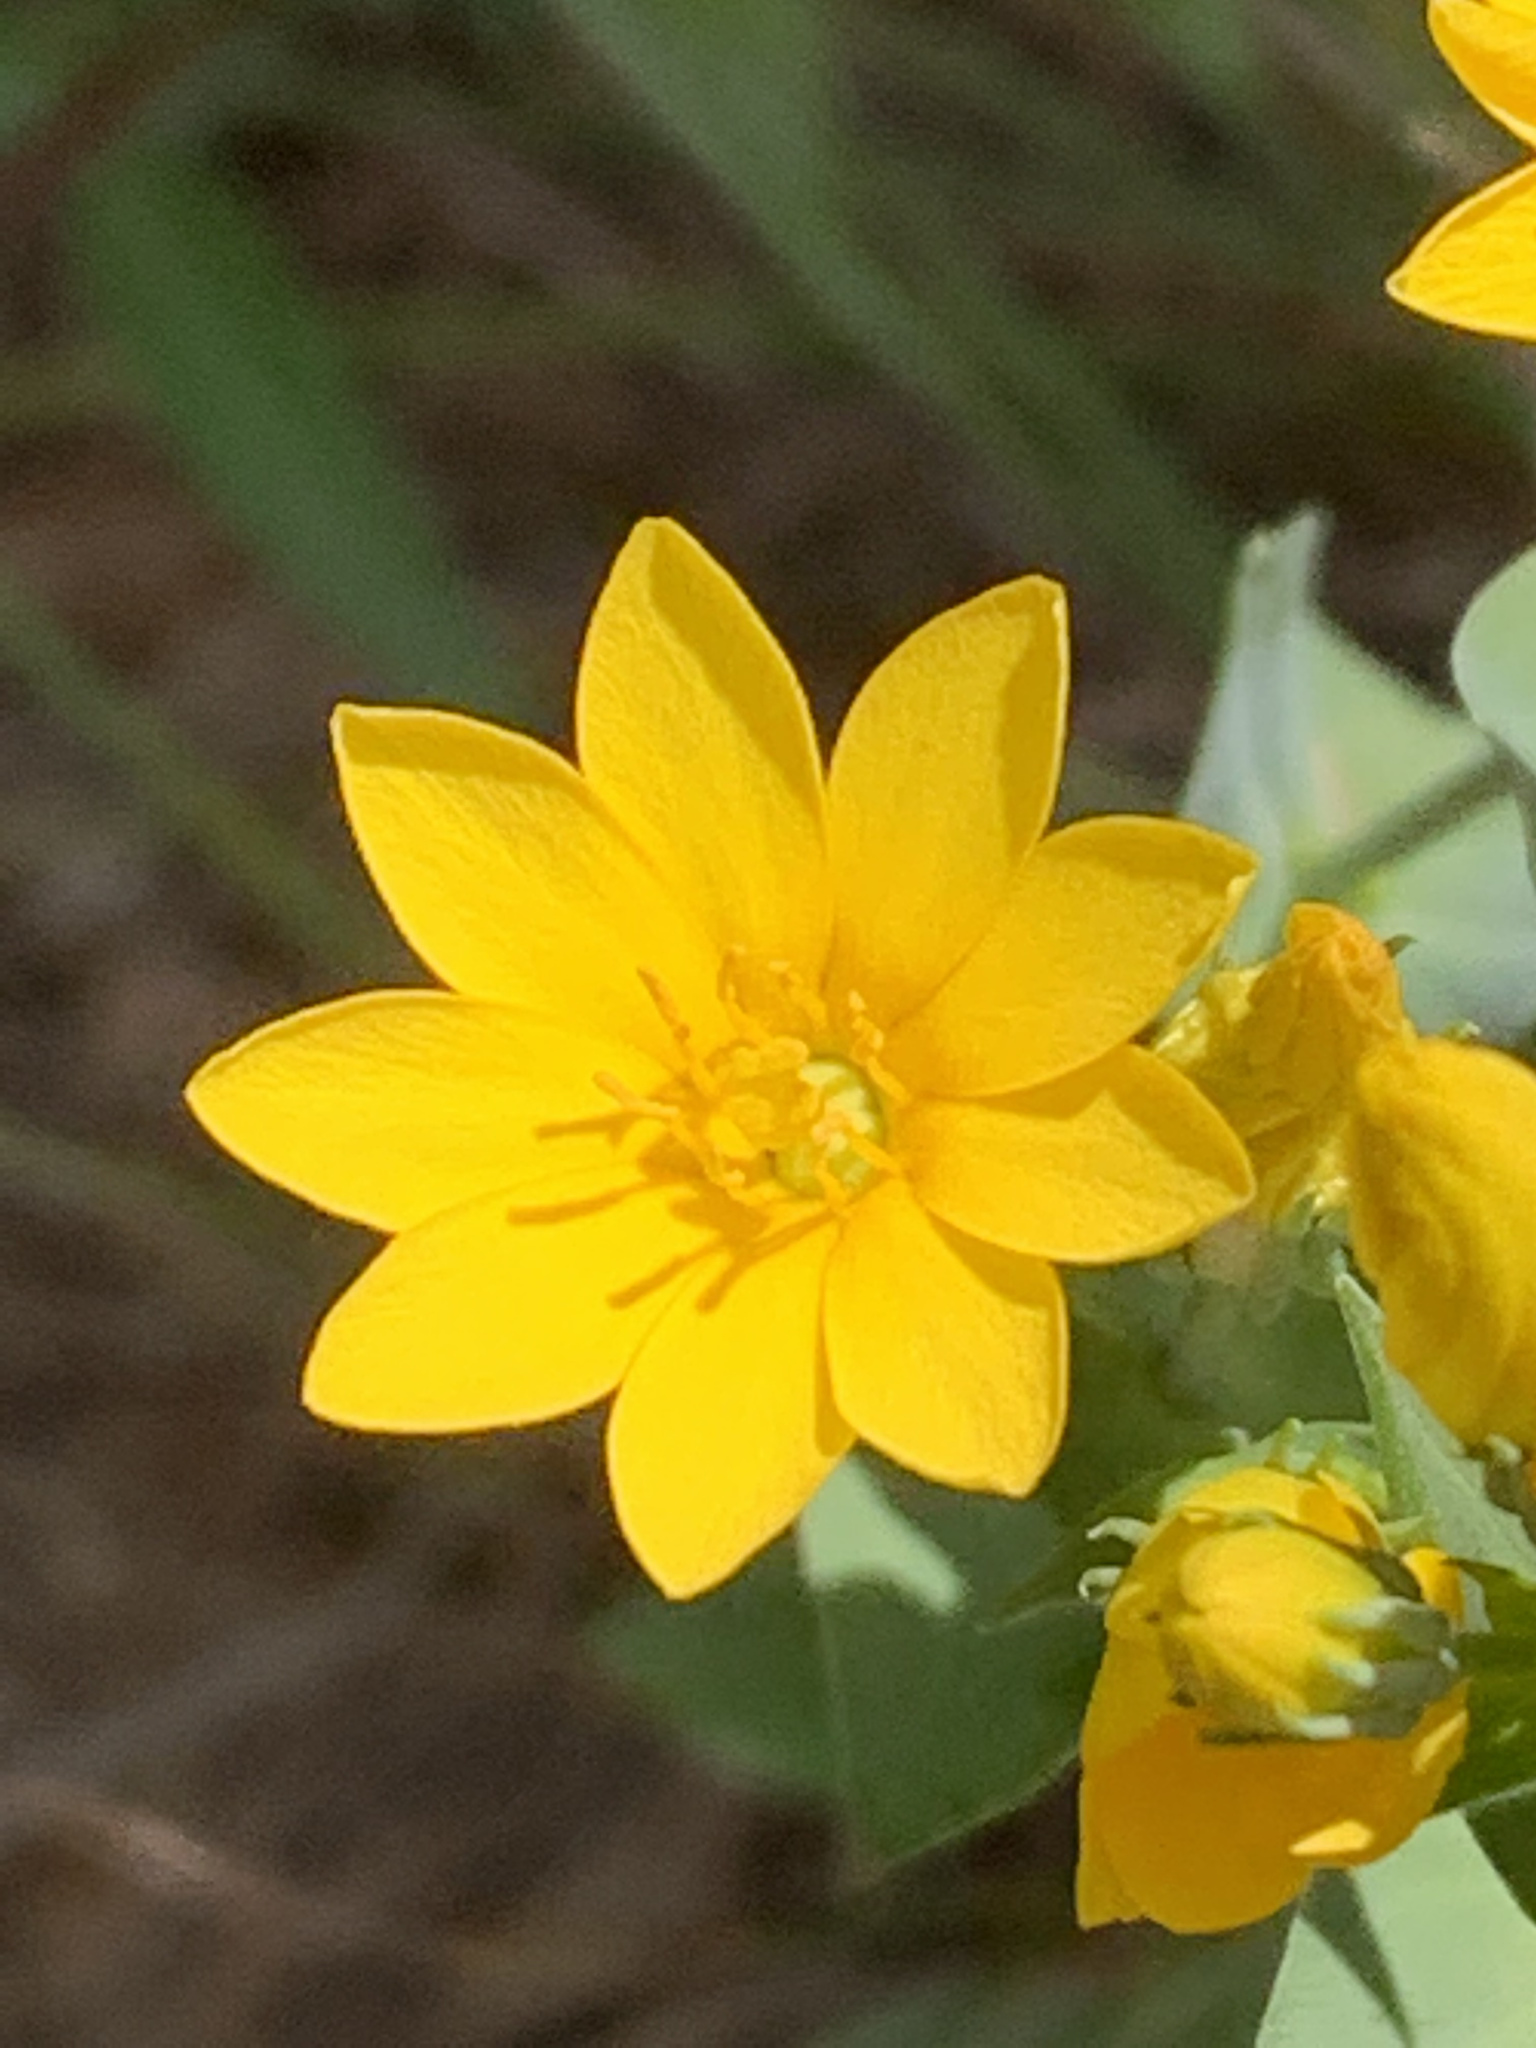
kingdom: Plantae
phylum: Tracheophyta
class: Magnoliopsida
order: Gentianales
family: Gentianaceae
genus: Blackstonia
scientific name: Blackstonia perfoliata
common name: Yellow-wort
